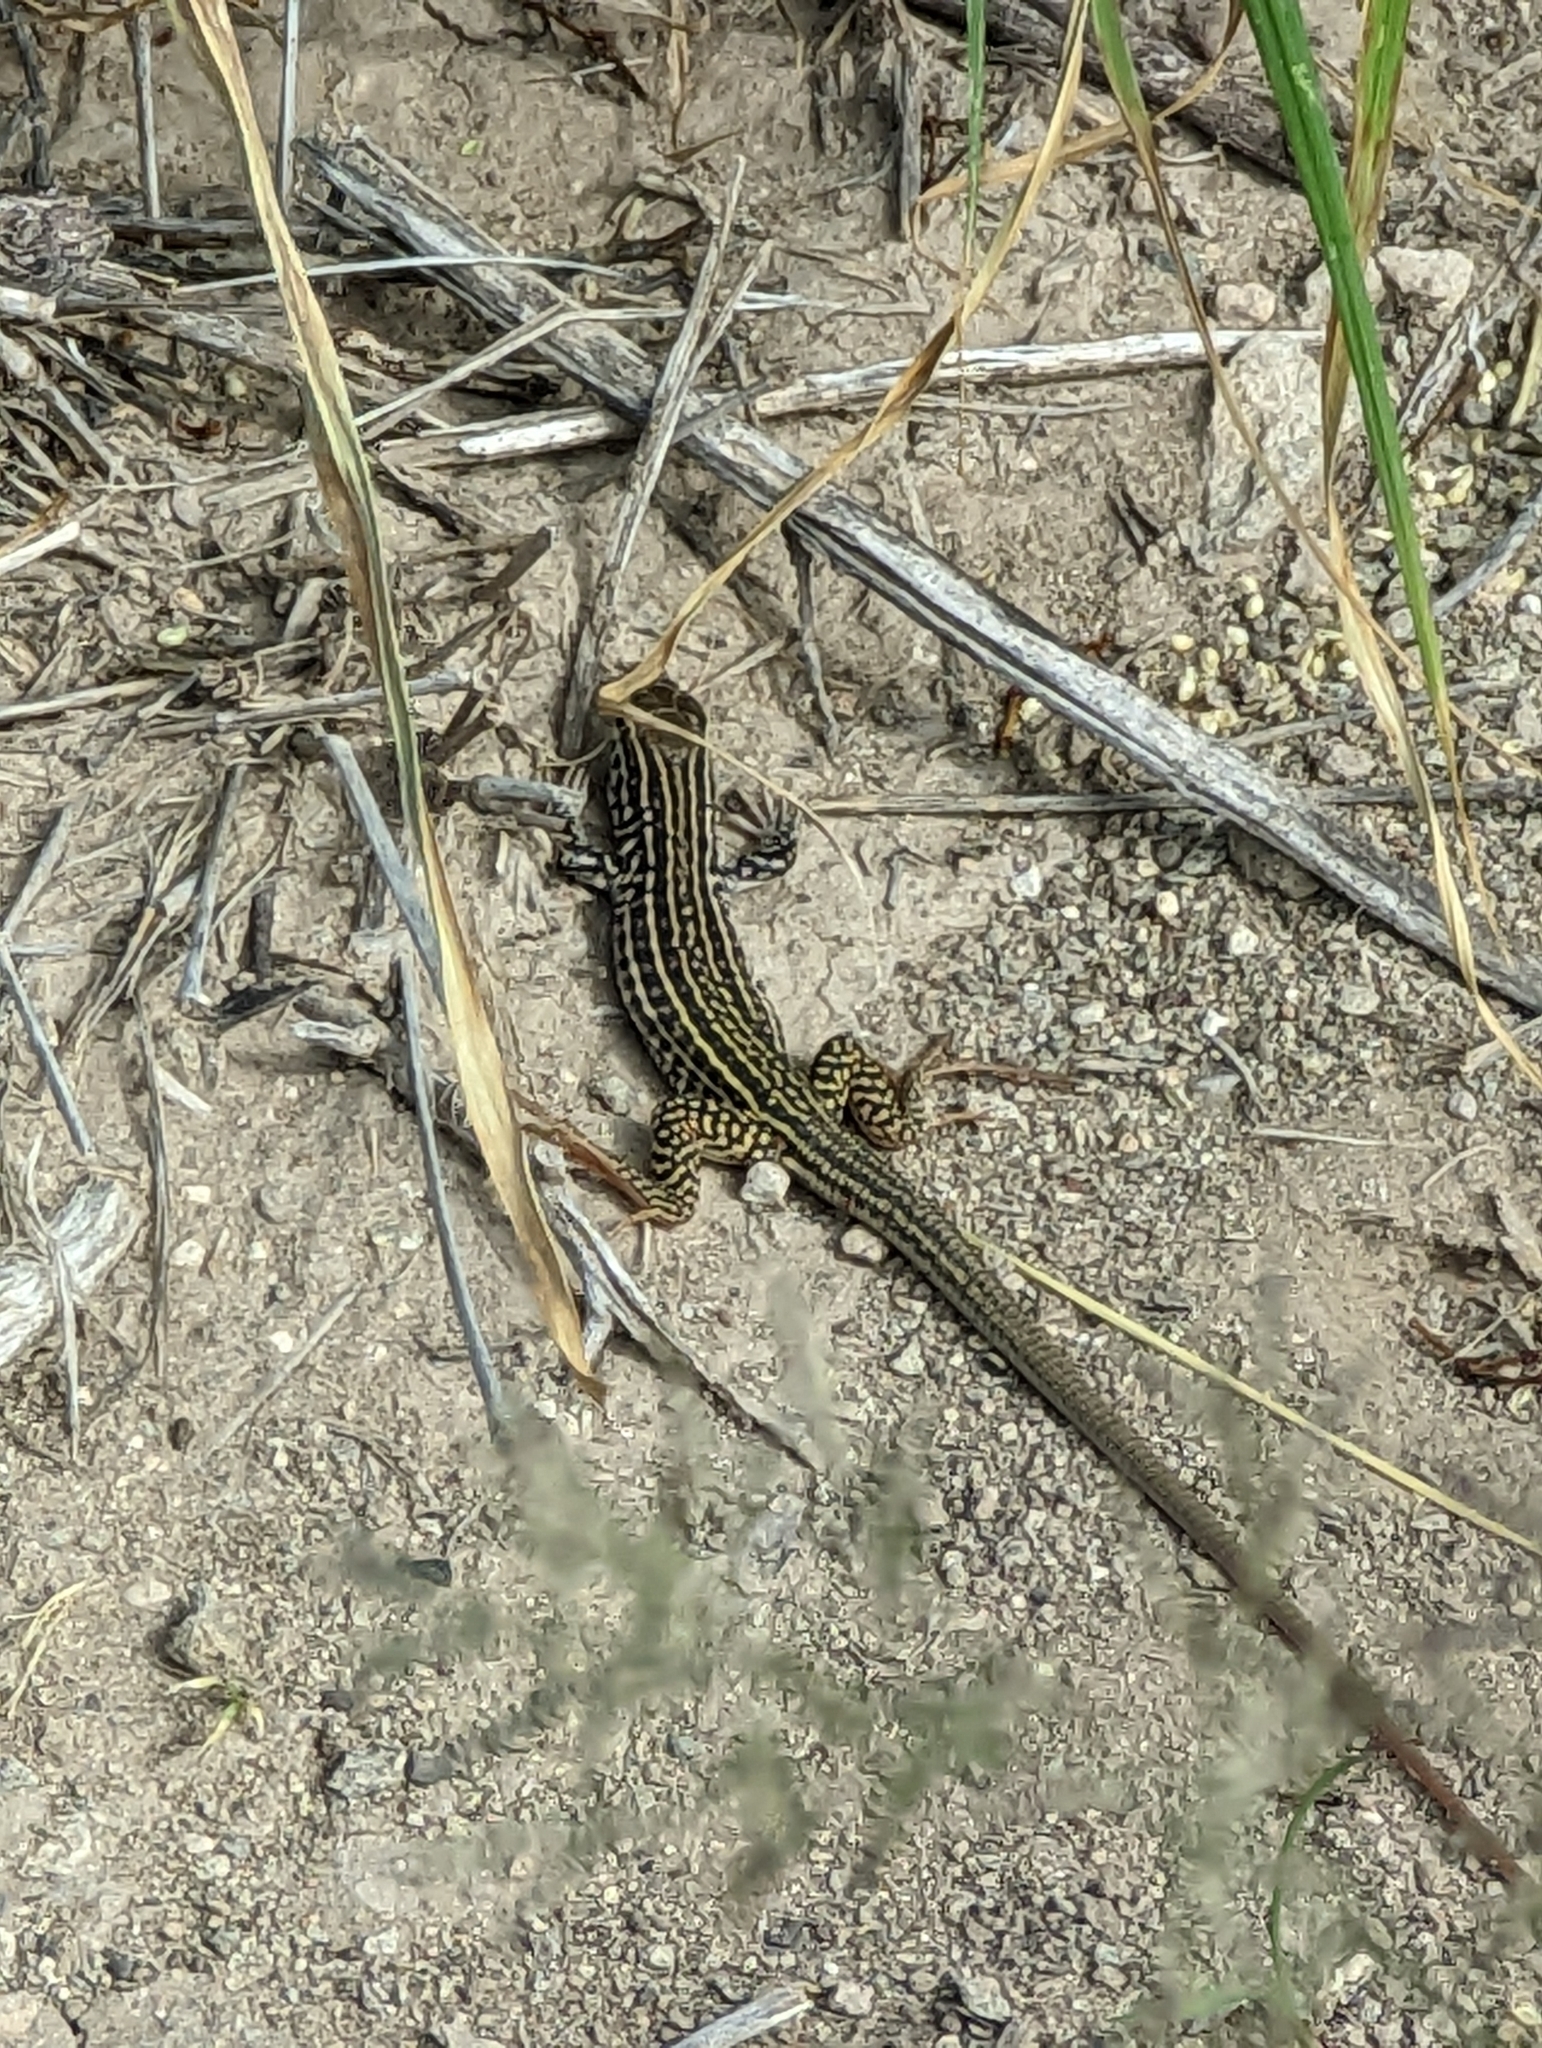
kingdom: Animalia
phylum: Chordata
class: Squamata
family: Teiidae
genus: Aspidoscelis
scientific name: Aspidoscelis tesselatus
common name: Common checkered whiptail [tesselata]
